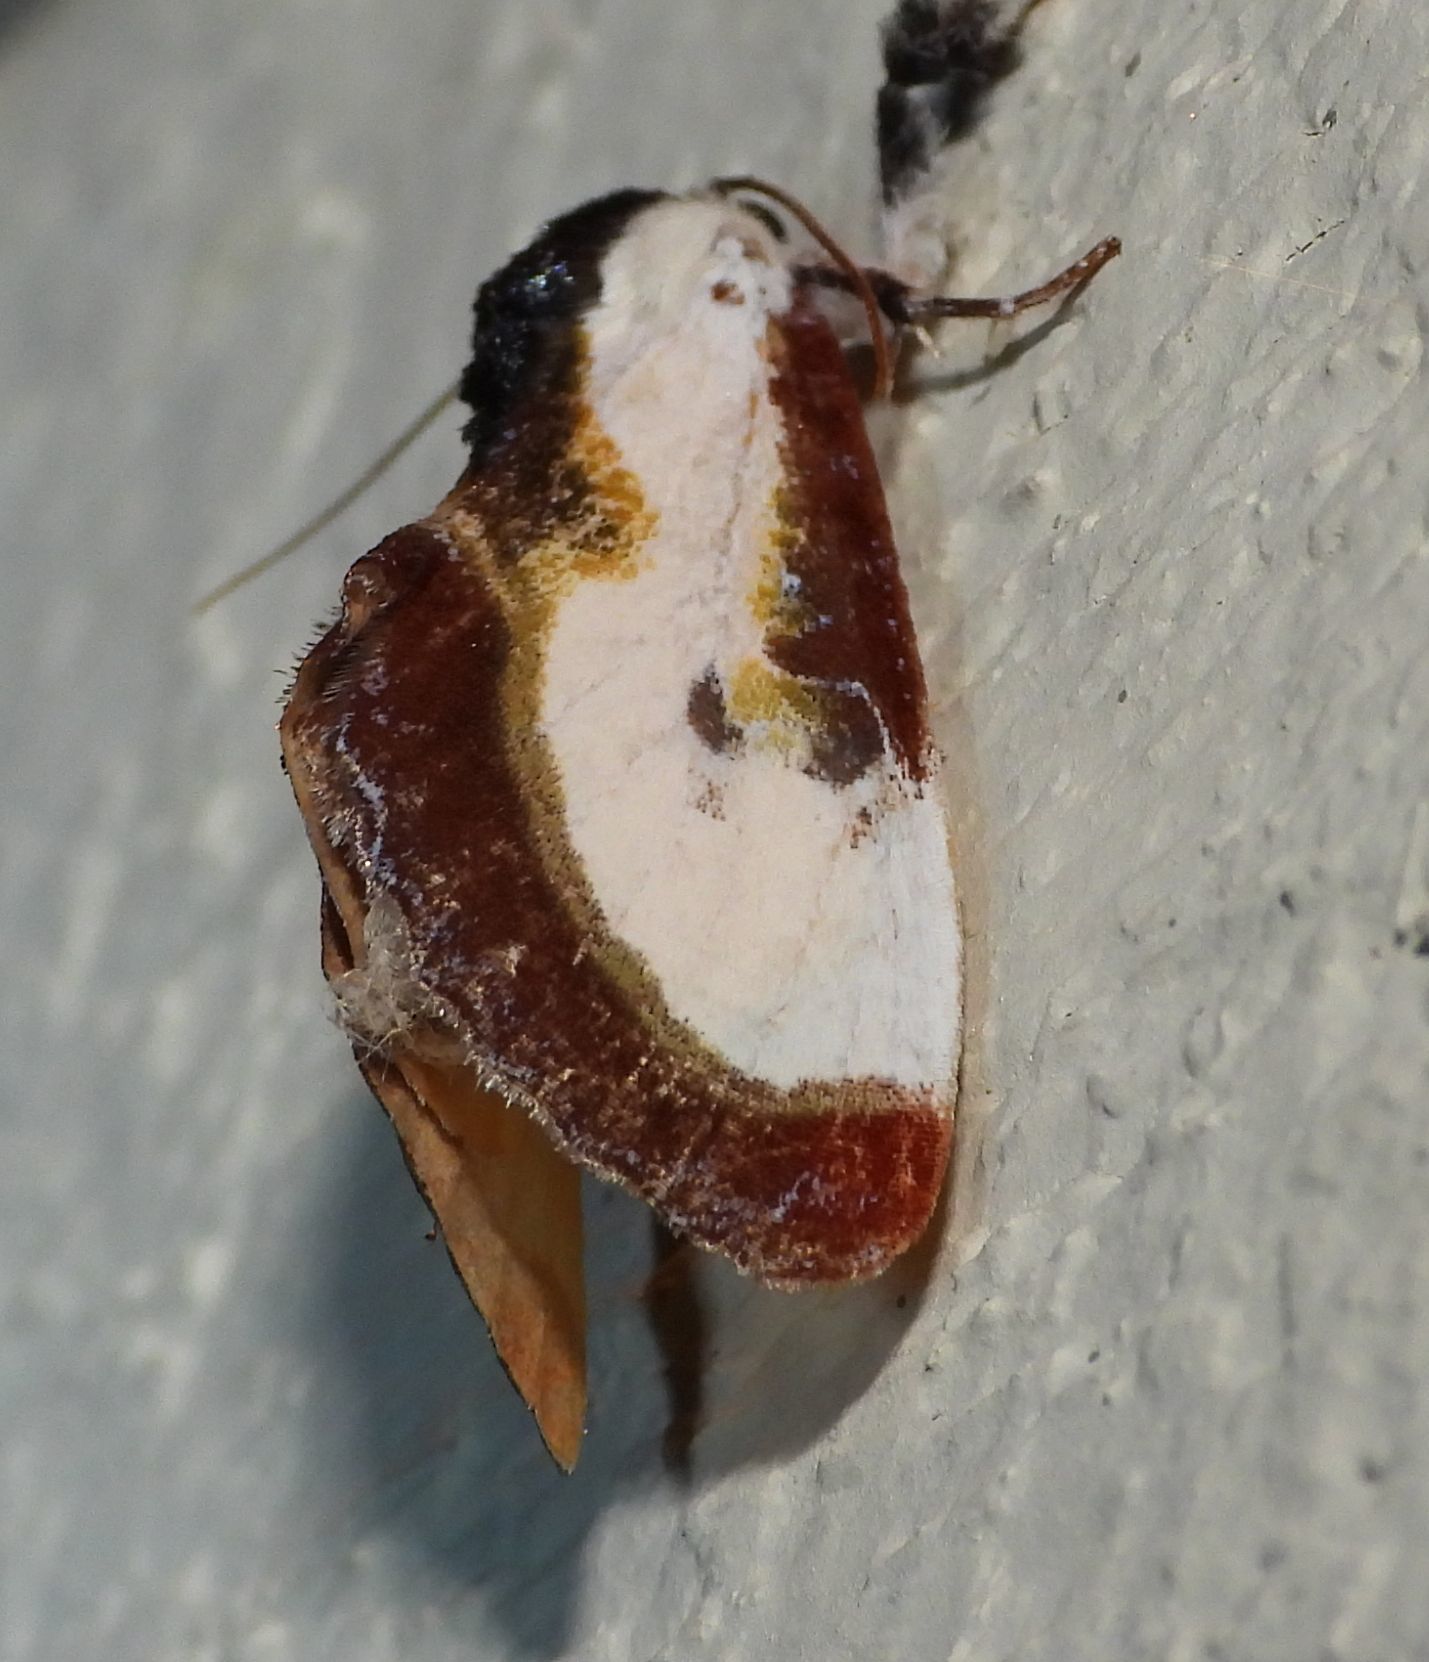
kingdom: Animalia
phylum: Arthropoda
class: Insecta
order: Lepidoptera
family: Noctuidae
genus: Eudryas
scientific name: Eudryas grata
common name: Beautiful wood-nymph
